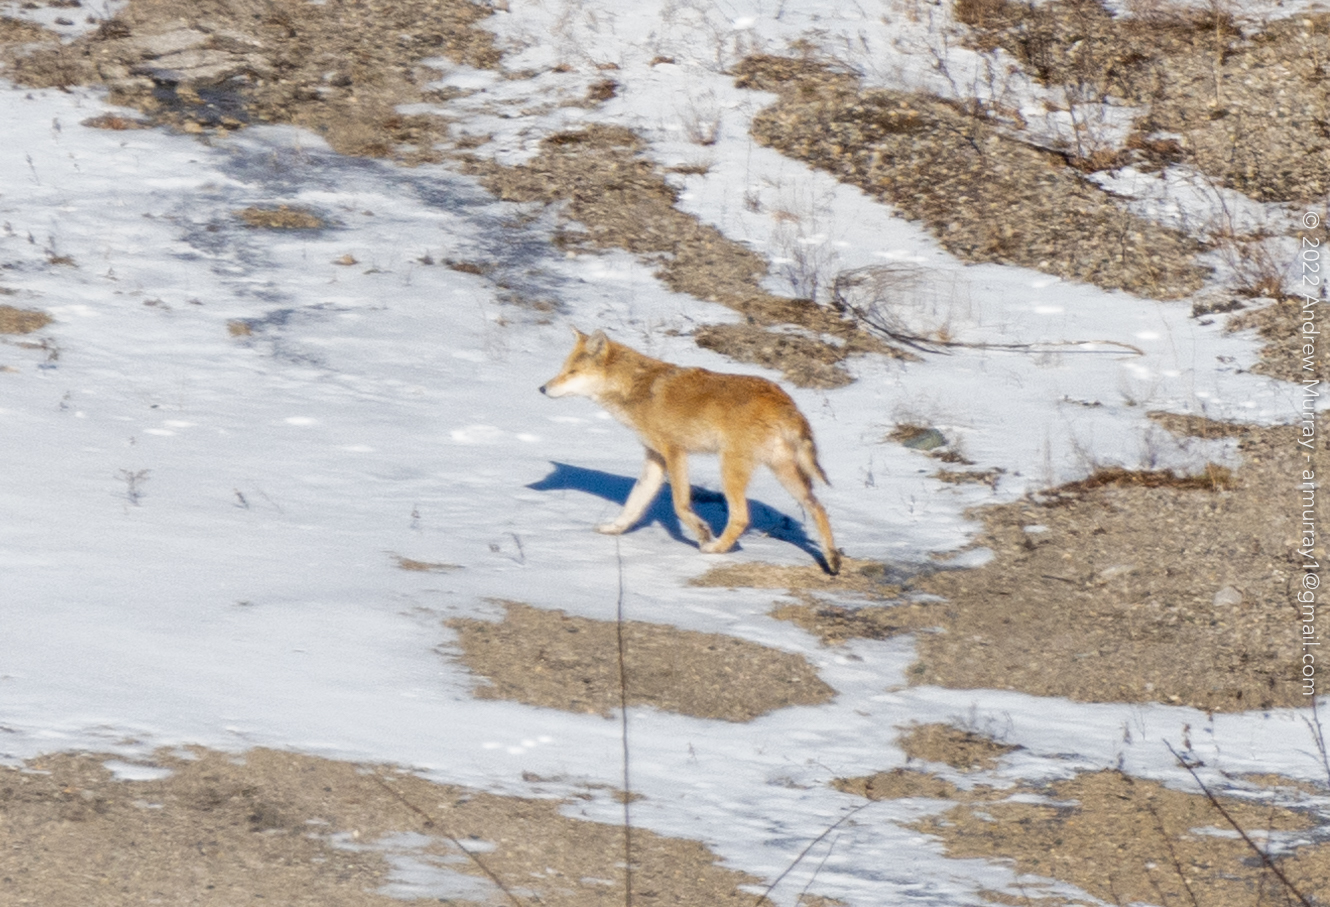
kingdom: Animalia
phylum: Chordata
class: Mammalia
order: Carnivora
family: Canidae
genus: Canis
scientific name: Canis latrans
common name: Coyote
